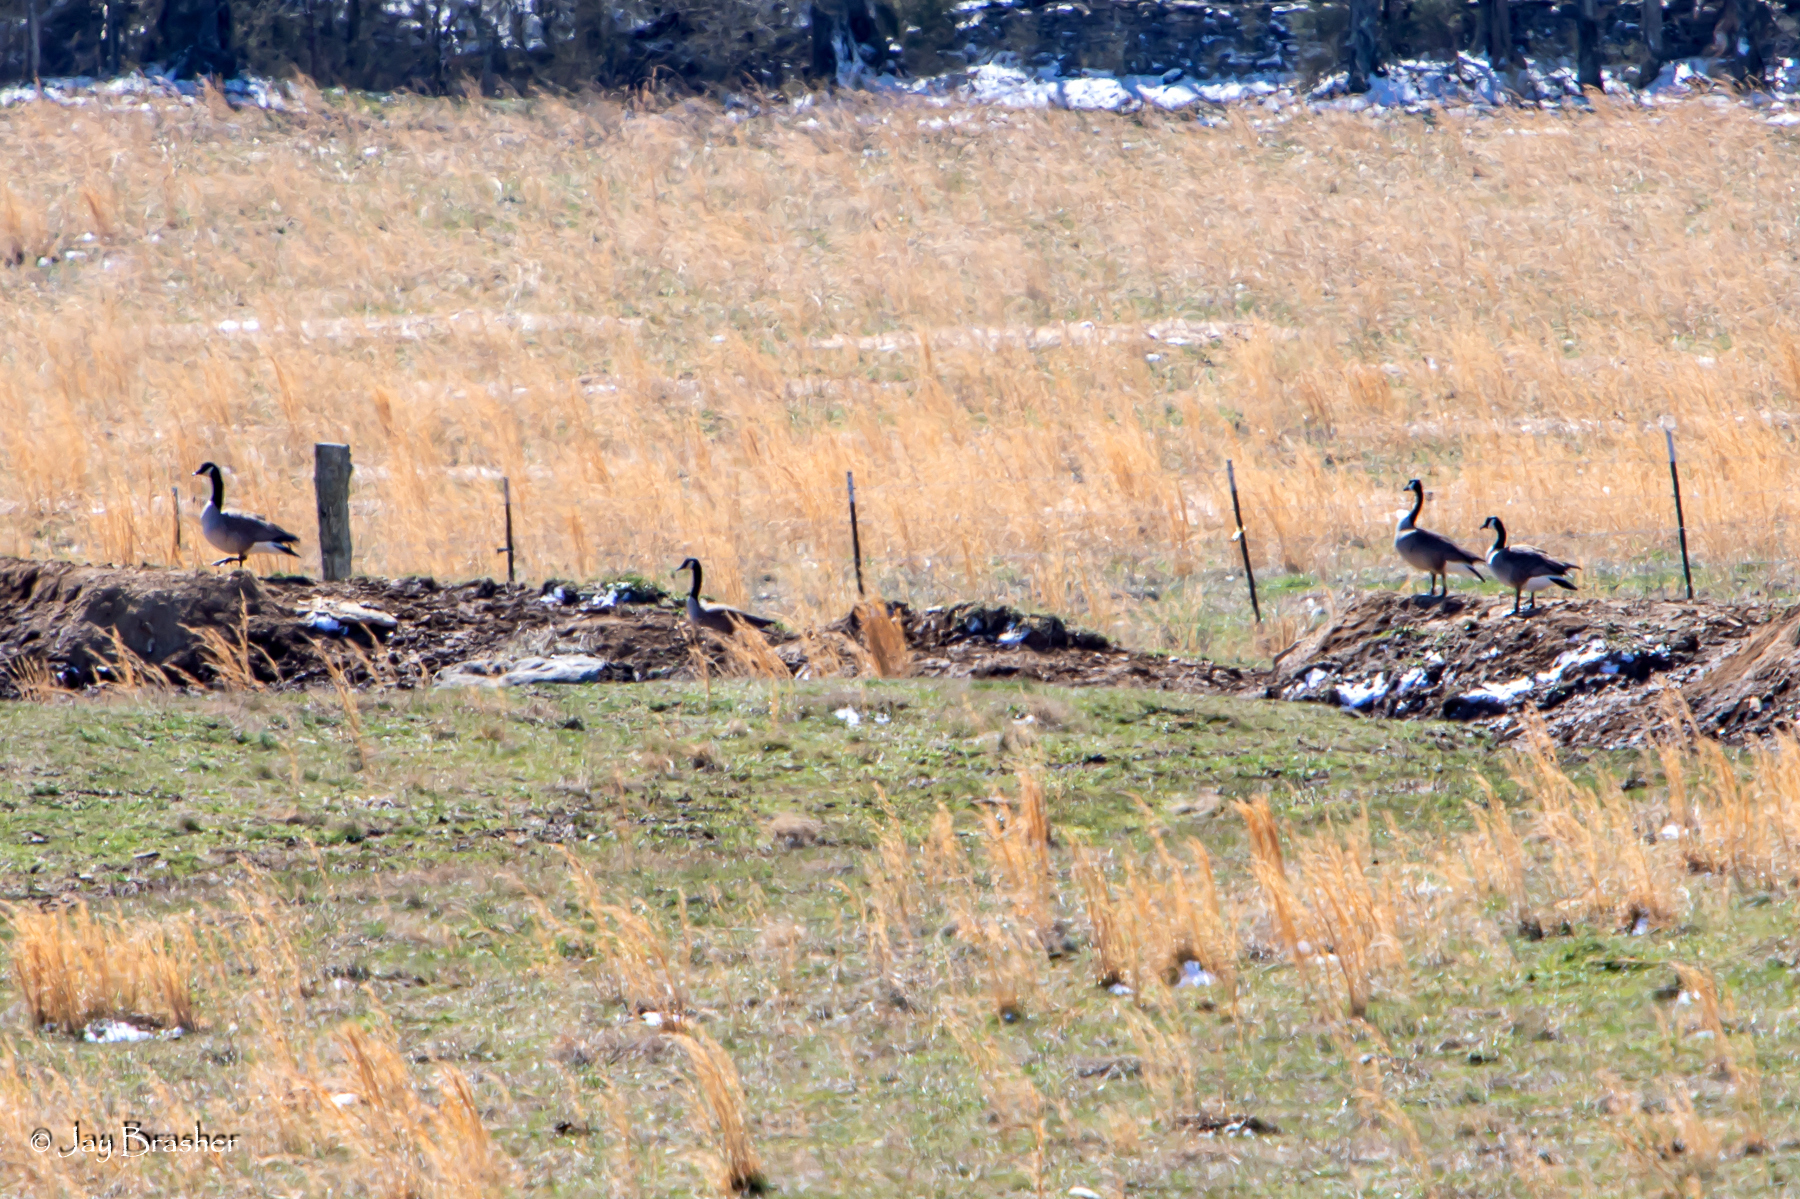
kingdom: Animalia
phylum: Chordata
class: Aves
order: Anseriformes
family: Anatidae
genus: Branta
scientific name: Branta canadensis
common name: Canada goose
